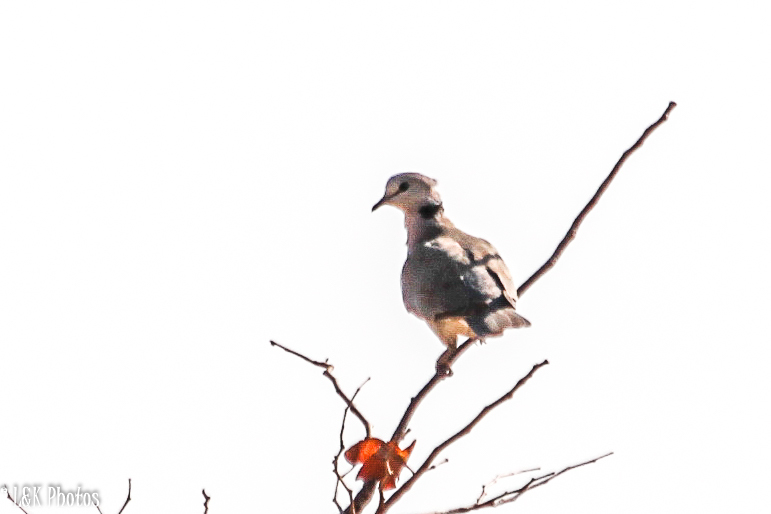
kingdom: Animalia
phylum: Chordata
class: Aves
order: Columbiformes
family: Columbidae
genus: Streptopelia
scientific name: Streptopelia capicola
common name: Ring-necked dove
